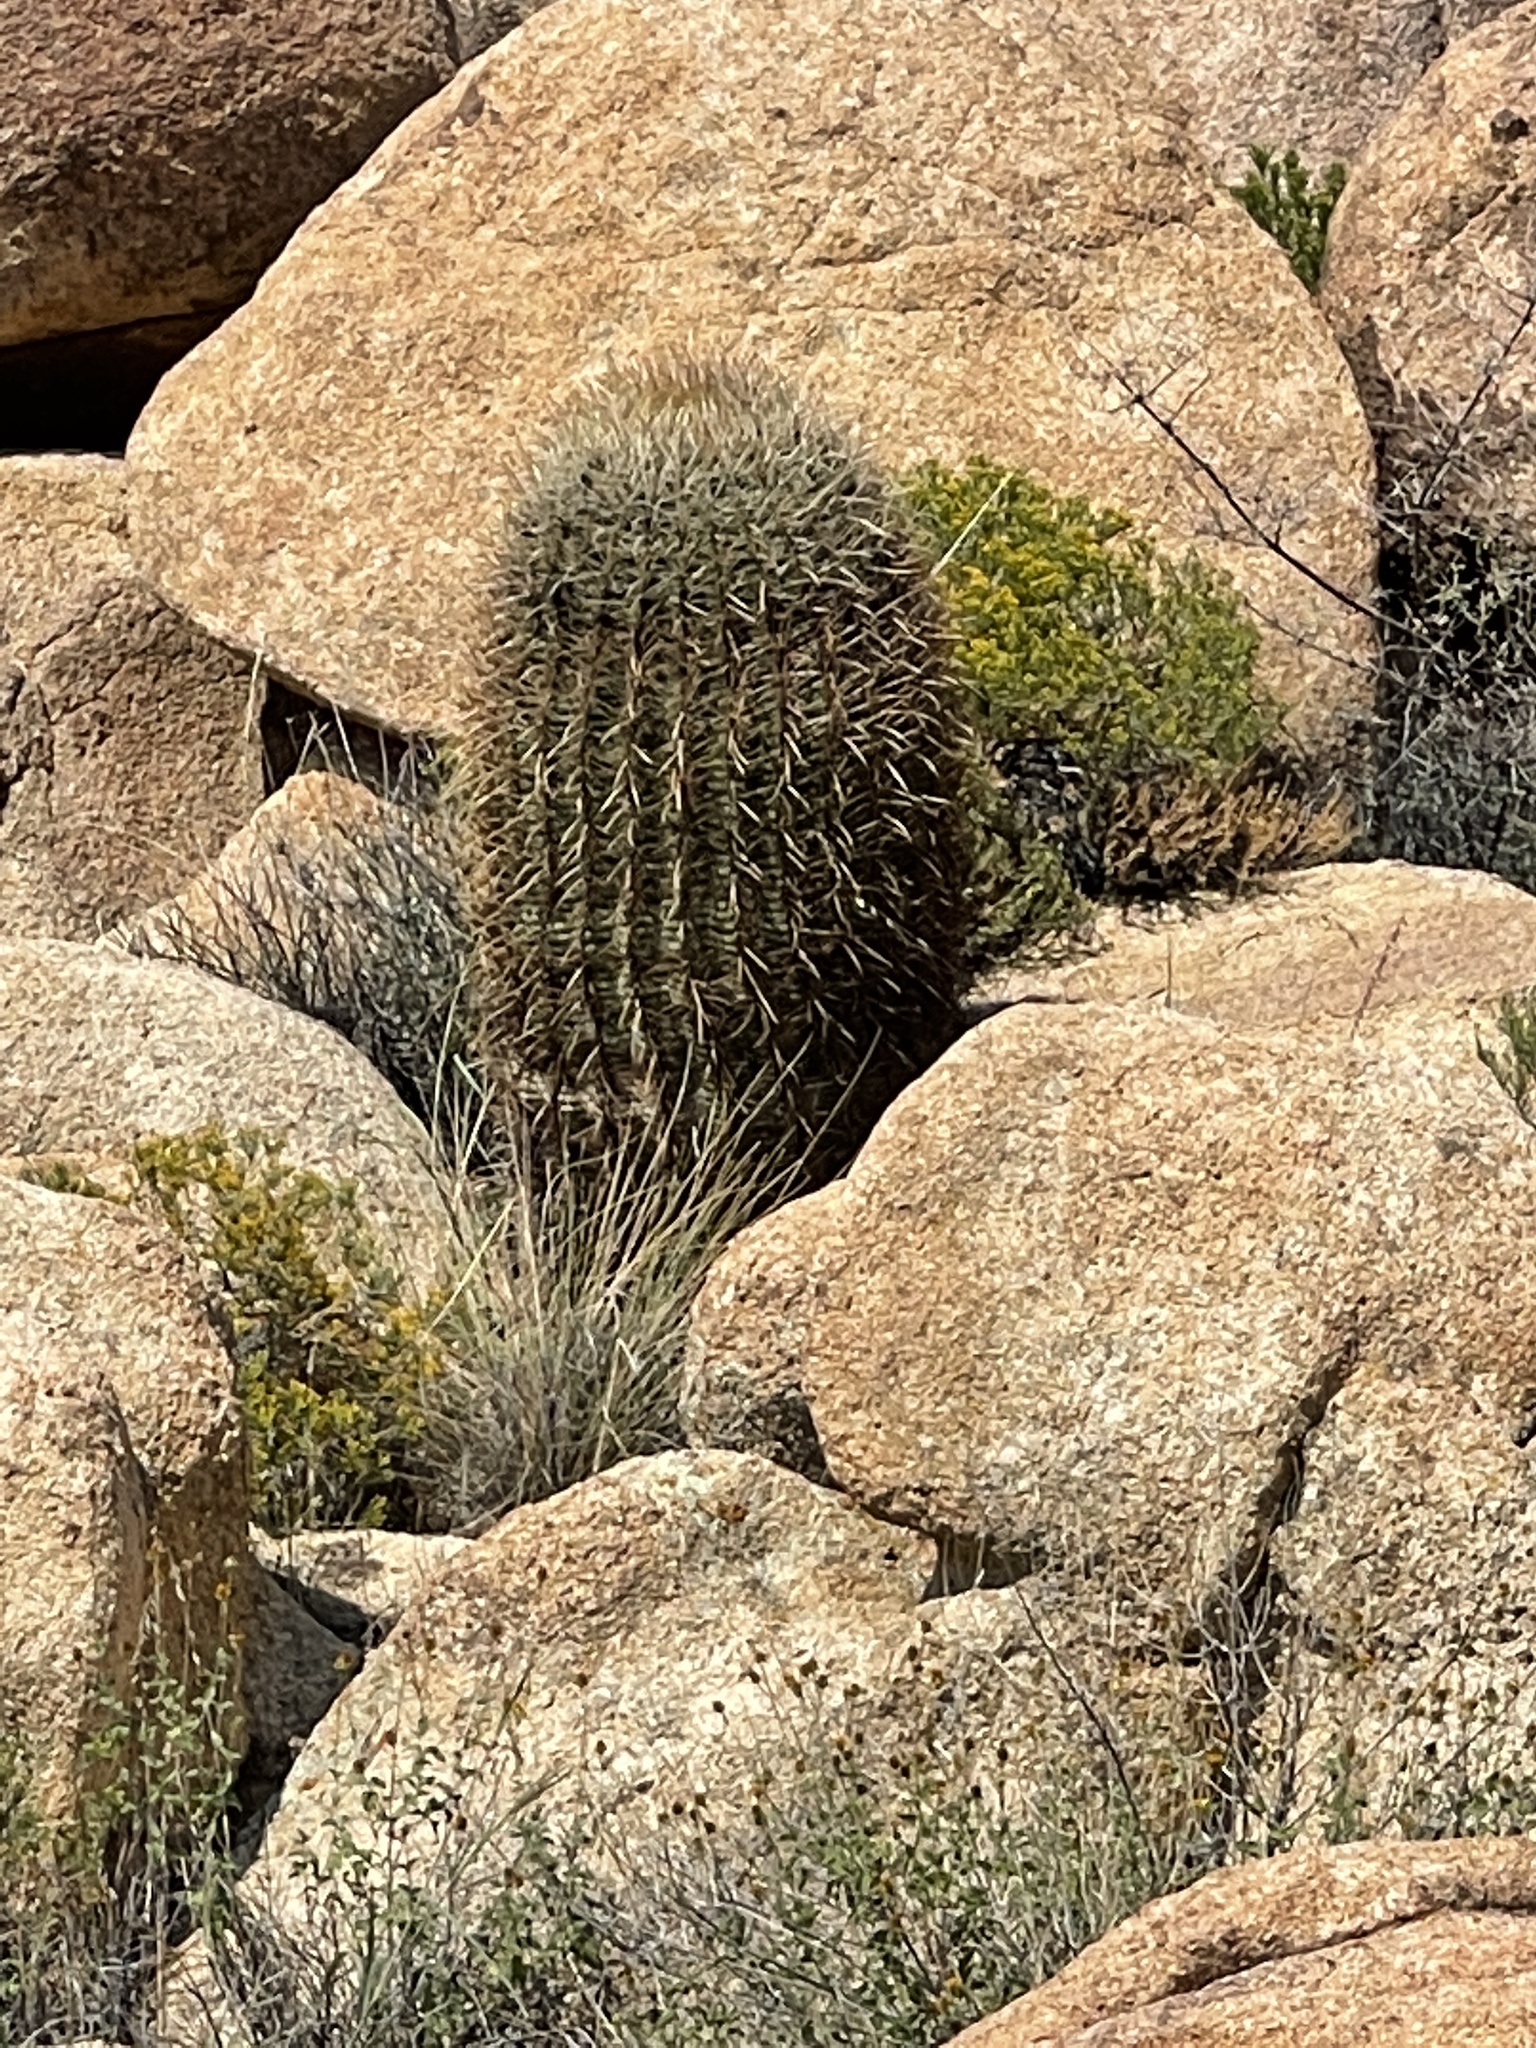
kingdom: Plantae
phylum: Tracheophyta
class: Magnoliopsida
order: Caryophyllales
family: Cactaceae
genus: Ferocactus
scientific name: Ferocactus cylindraceus
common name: California barrel cactus
